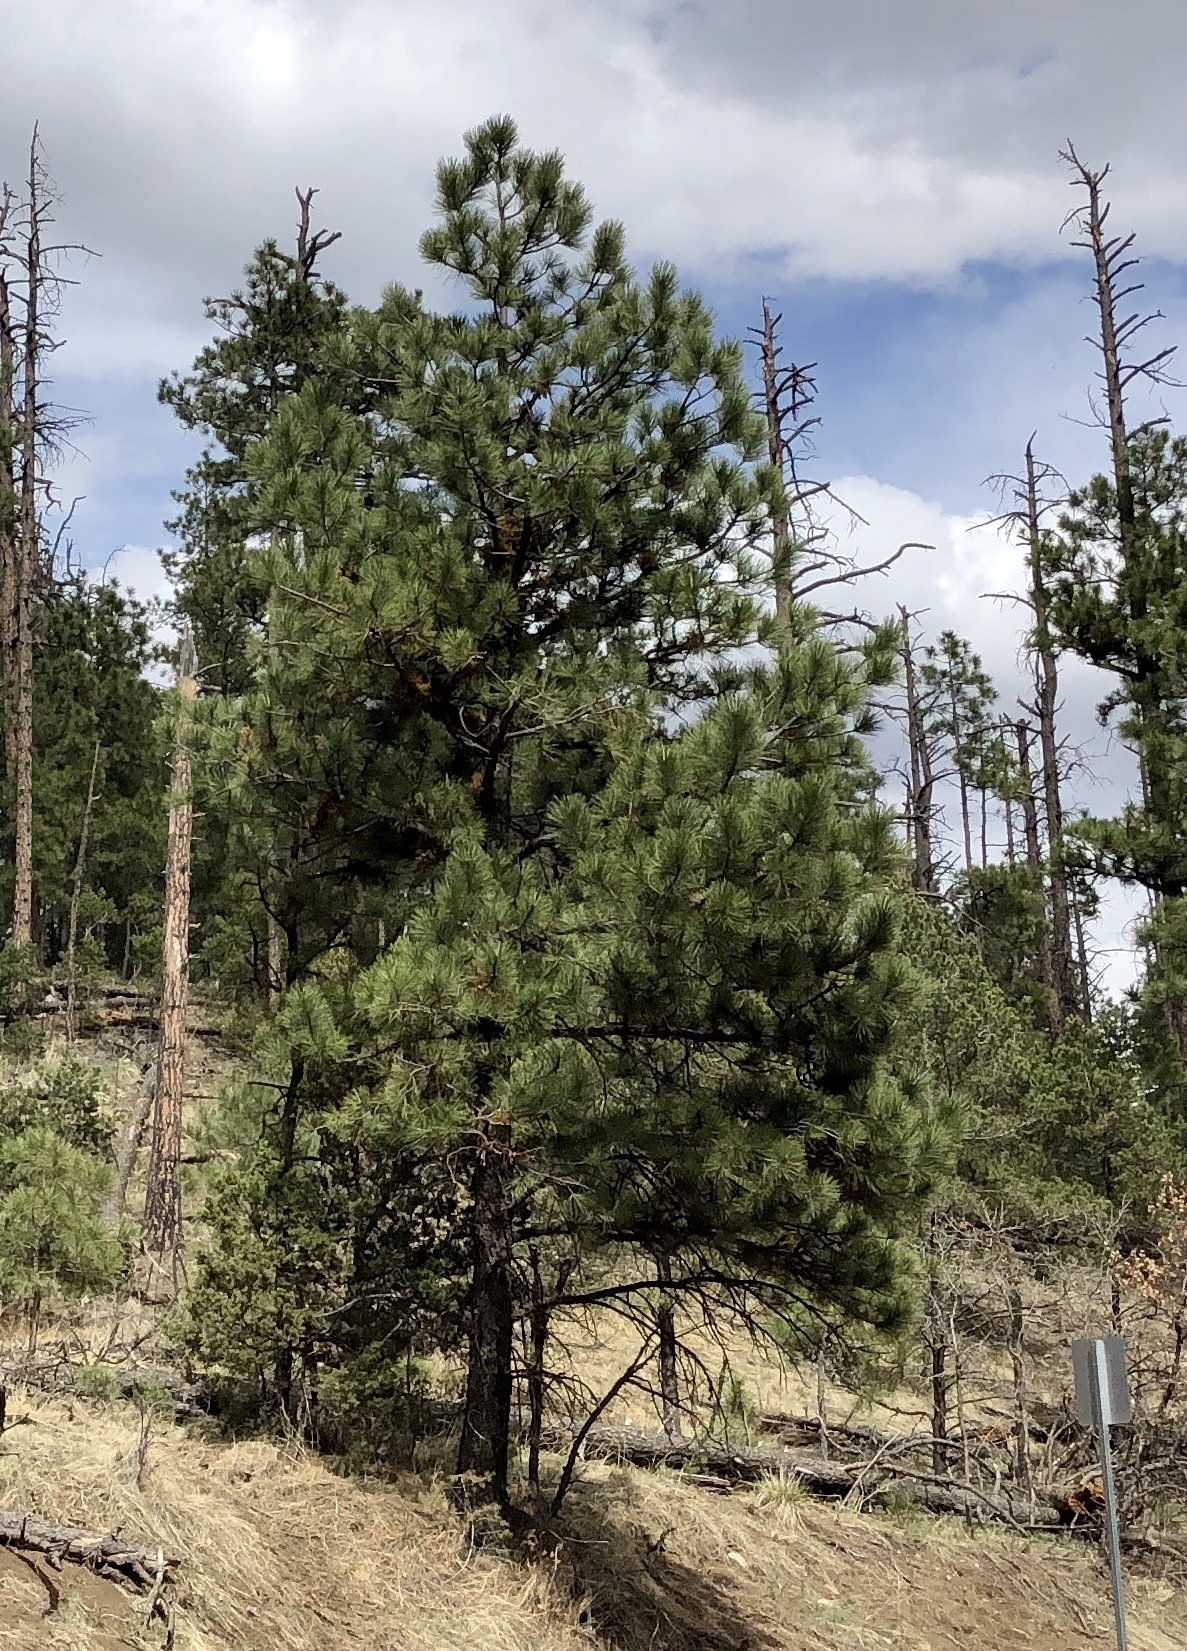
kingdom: Plantae
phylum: Tracheophyta
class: Pinopsida
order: Pinales
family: Pinaceae
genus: Pinus
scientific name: Pinus ponderosa
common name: Western yellow-pine
